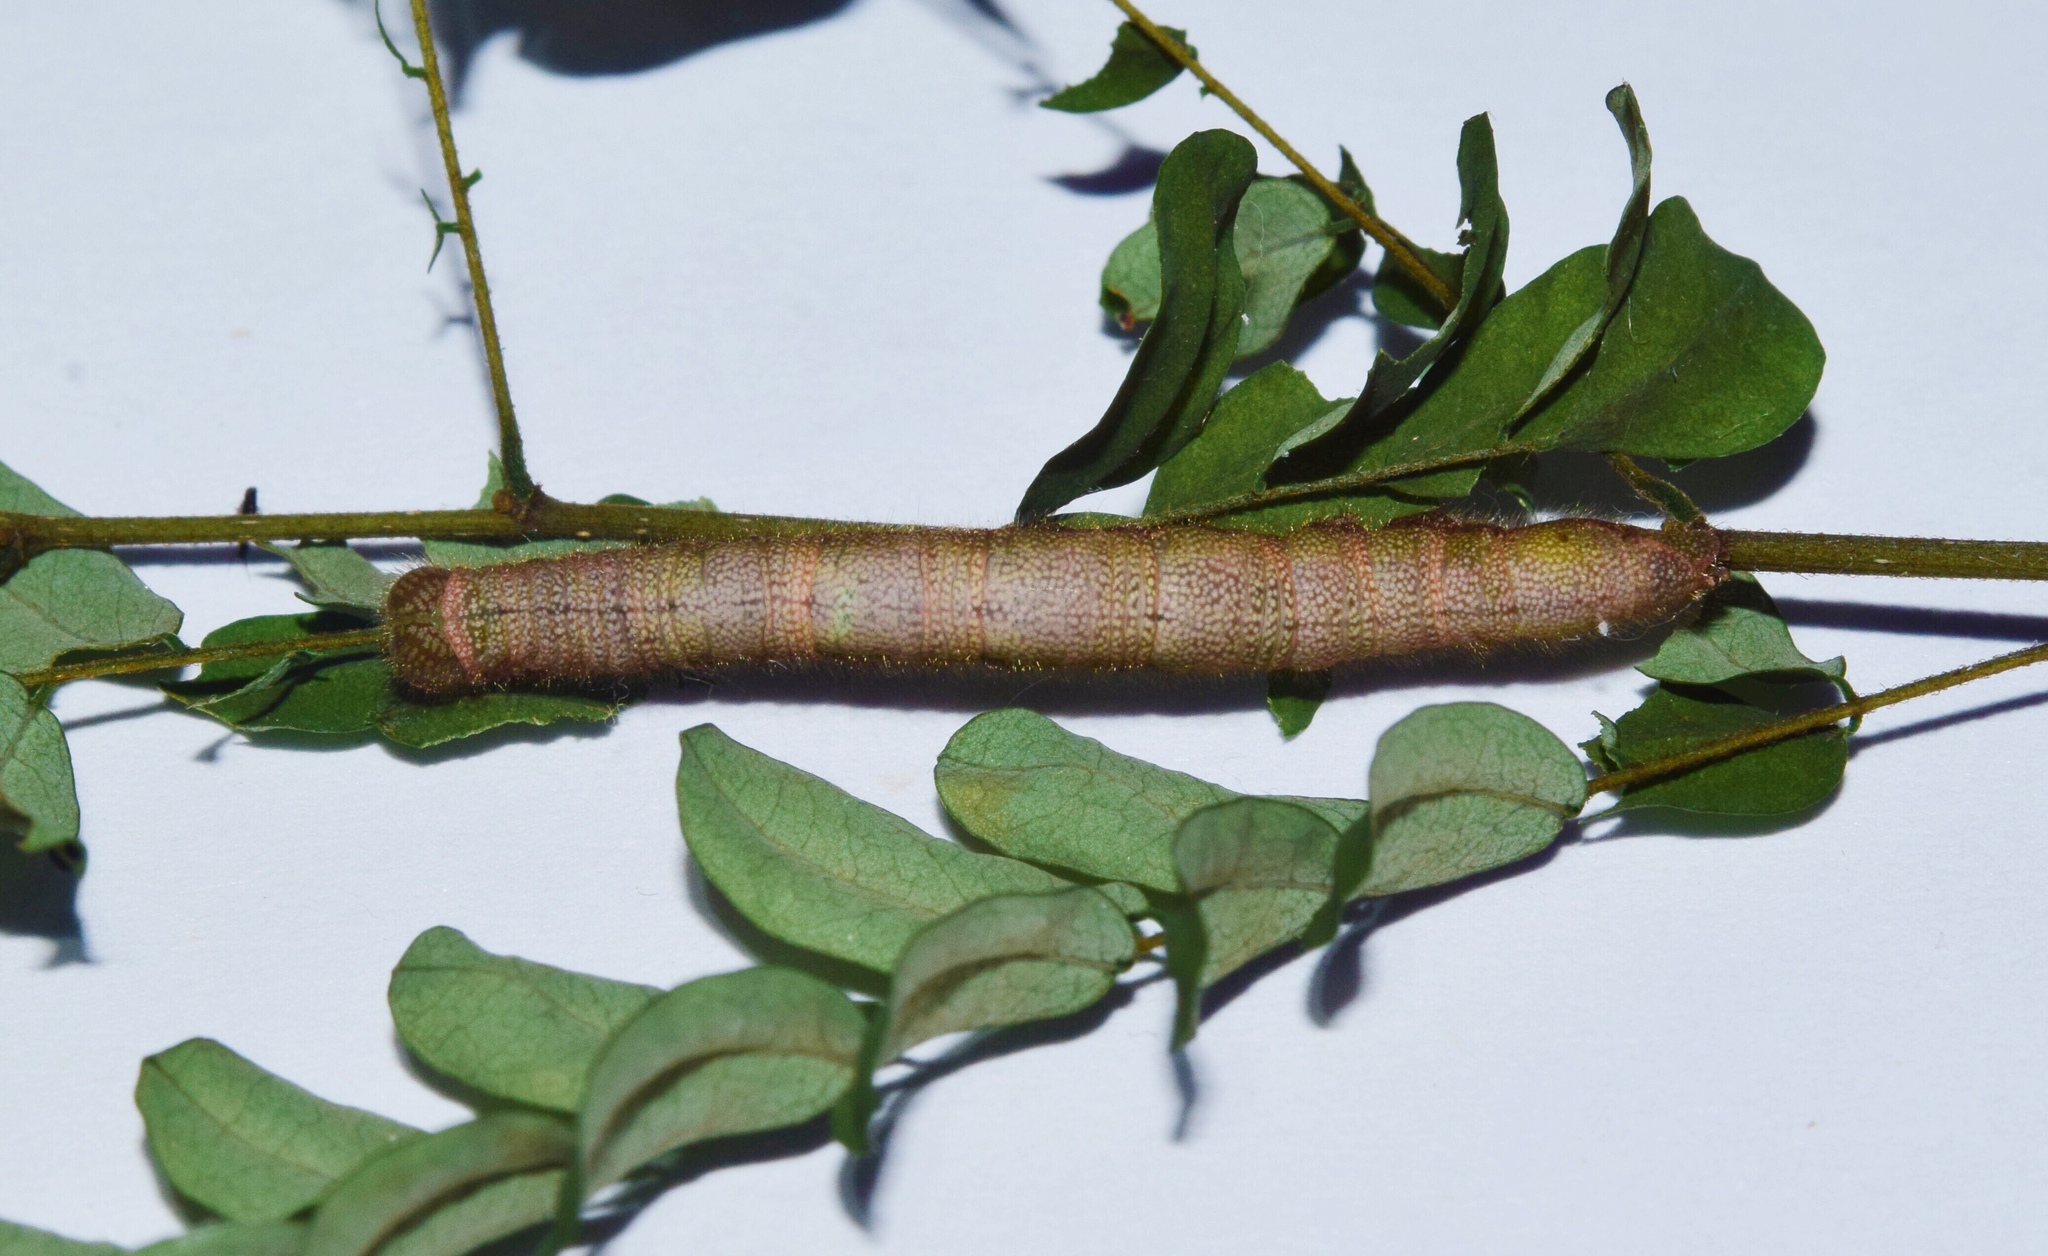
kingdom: Animalia
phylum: Arthropoda
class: Insecta
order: Lepidoptera
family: Erebidae
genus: Anoba
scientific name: Anoba disjuncta
